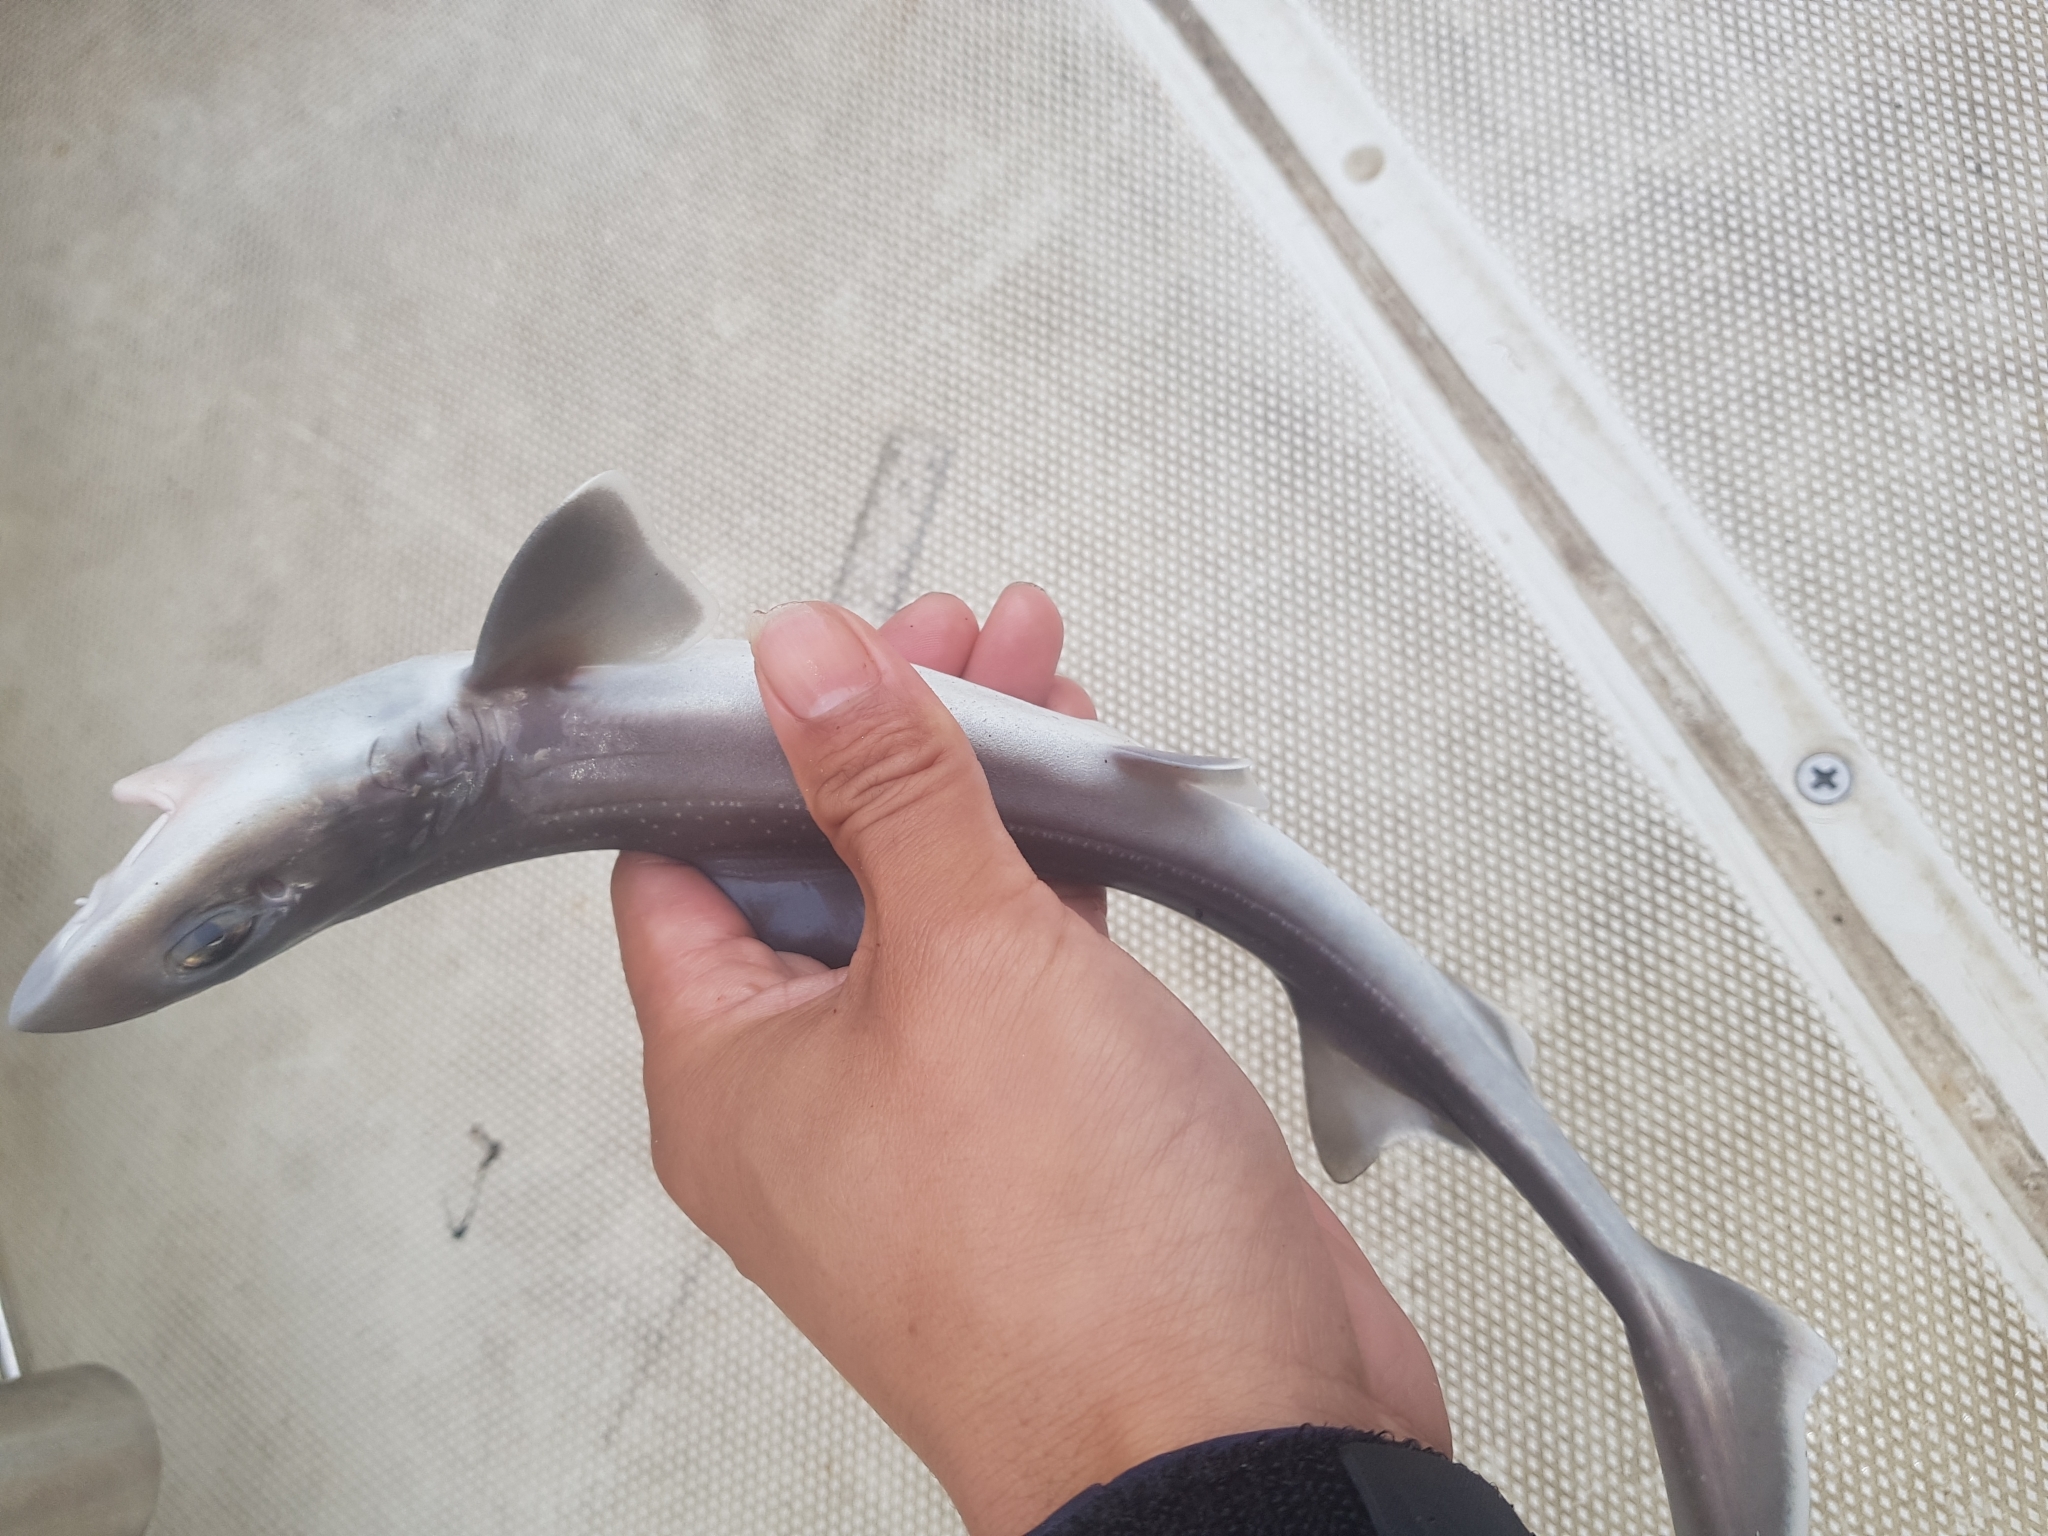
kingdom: Animalia
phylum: Chordata
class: Elasmobranchii
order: Carcharhiniformes
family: Triakidae
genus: Mustelus
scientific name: Mustelus antarcticus
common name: Gummy shark
